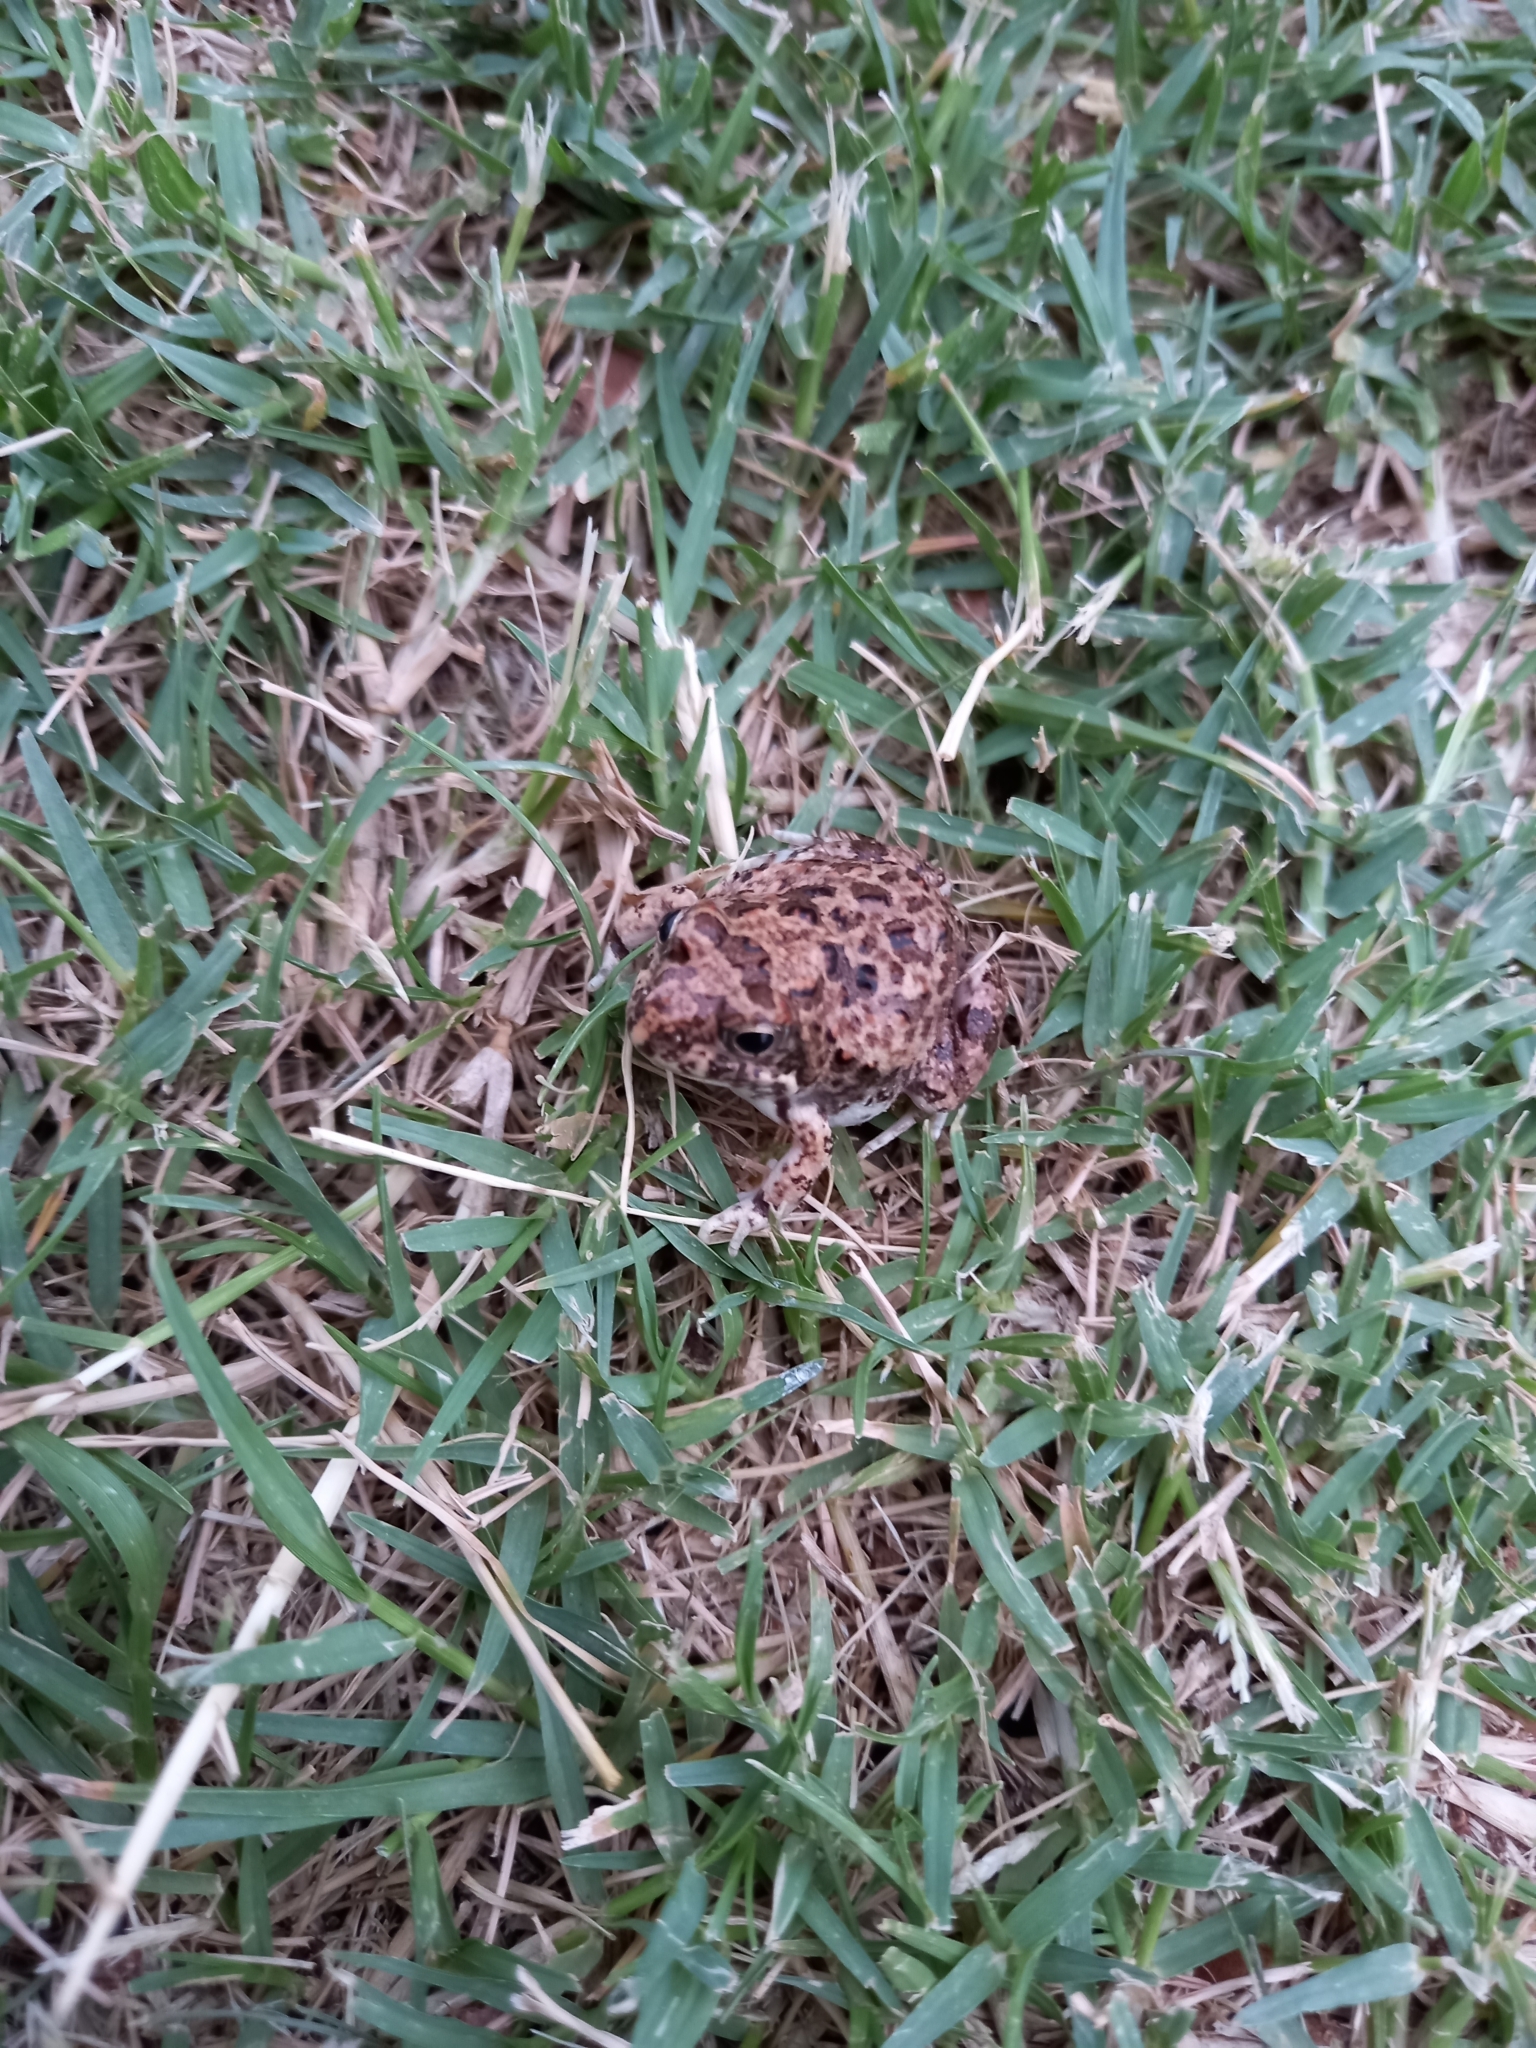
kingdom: Animalia
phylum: Chordata
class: Amphibia
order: Anura
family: Pyxicephalidae
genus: Tomopterna
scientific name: Tomopterna delalandii
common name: Delalande's burrowing bullfrog
